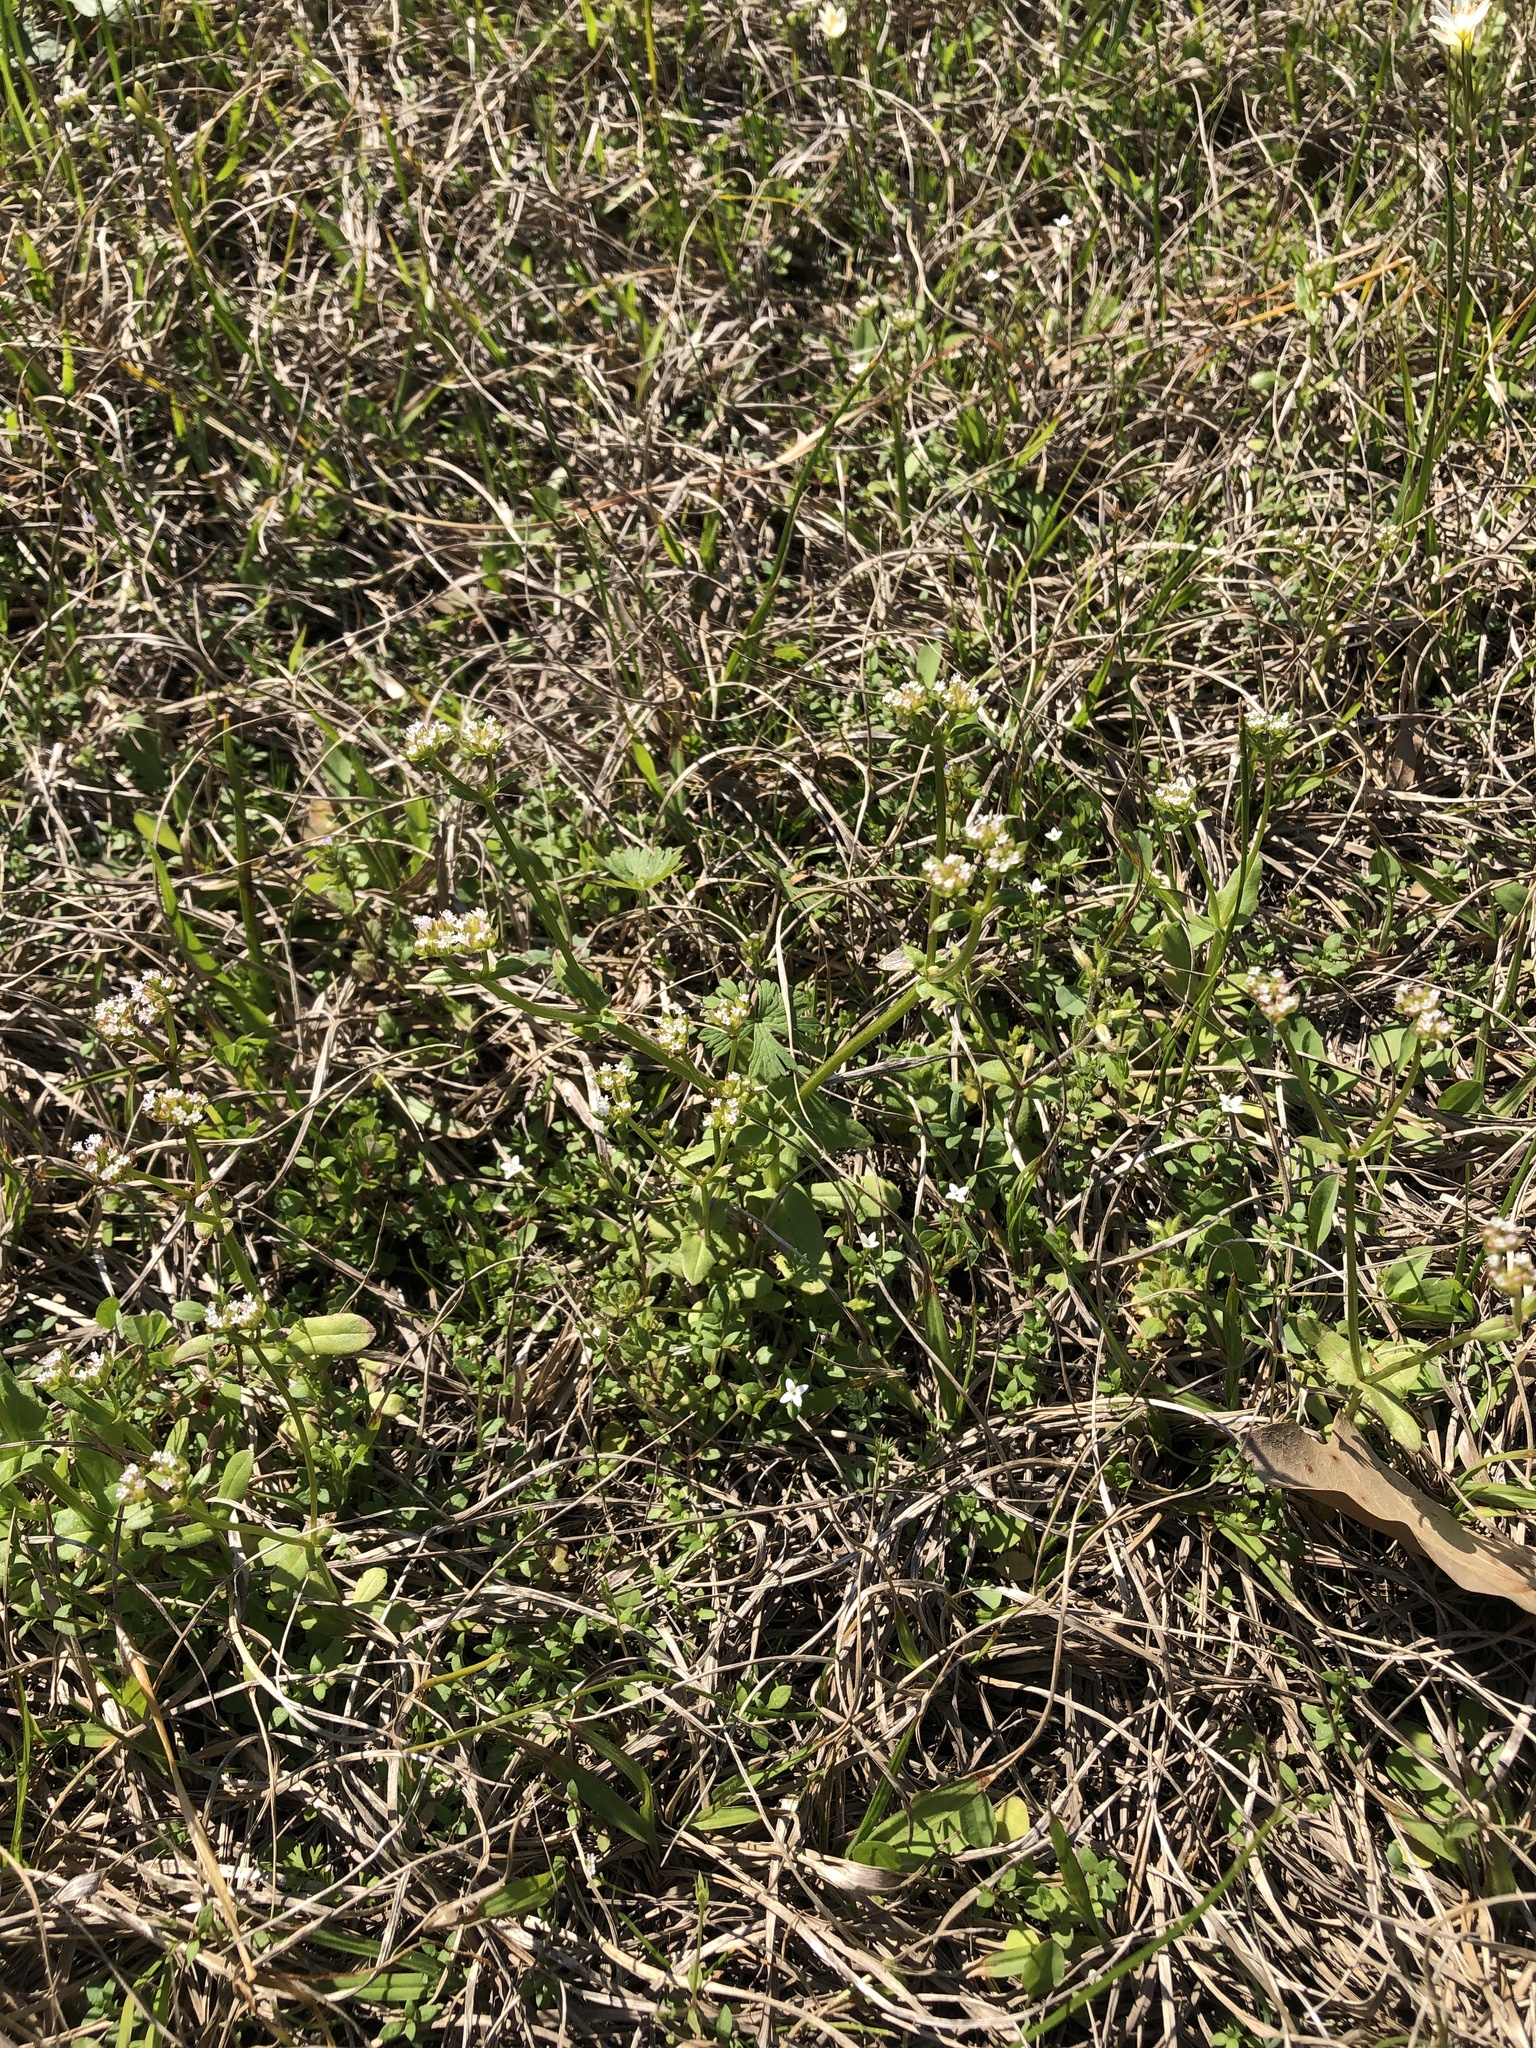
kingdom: Plantae
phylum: Tracheophyta
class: Magnoliopsida
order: Dipsacales
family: Caprifoliaceae
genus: Valerianella
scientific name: Valerianella radiata
